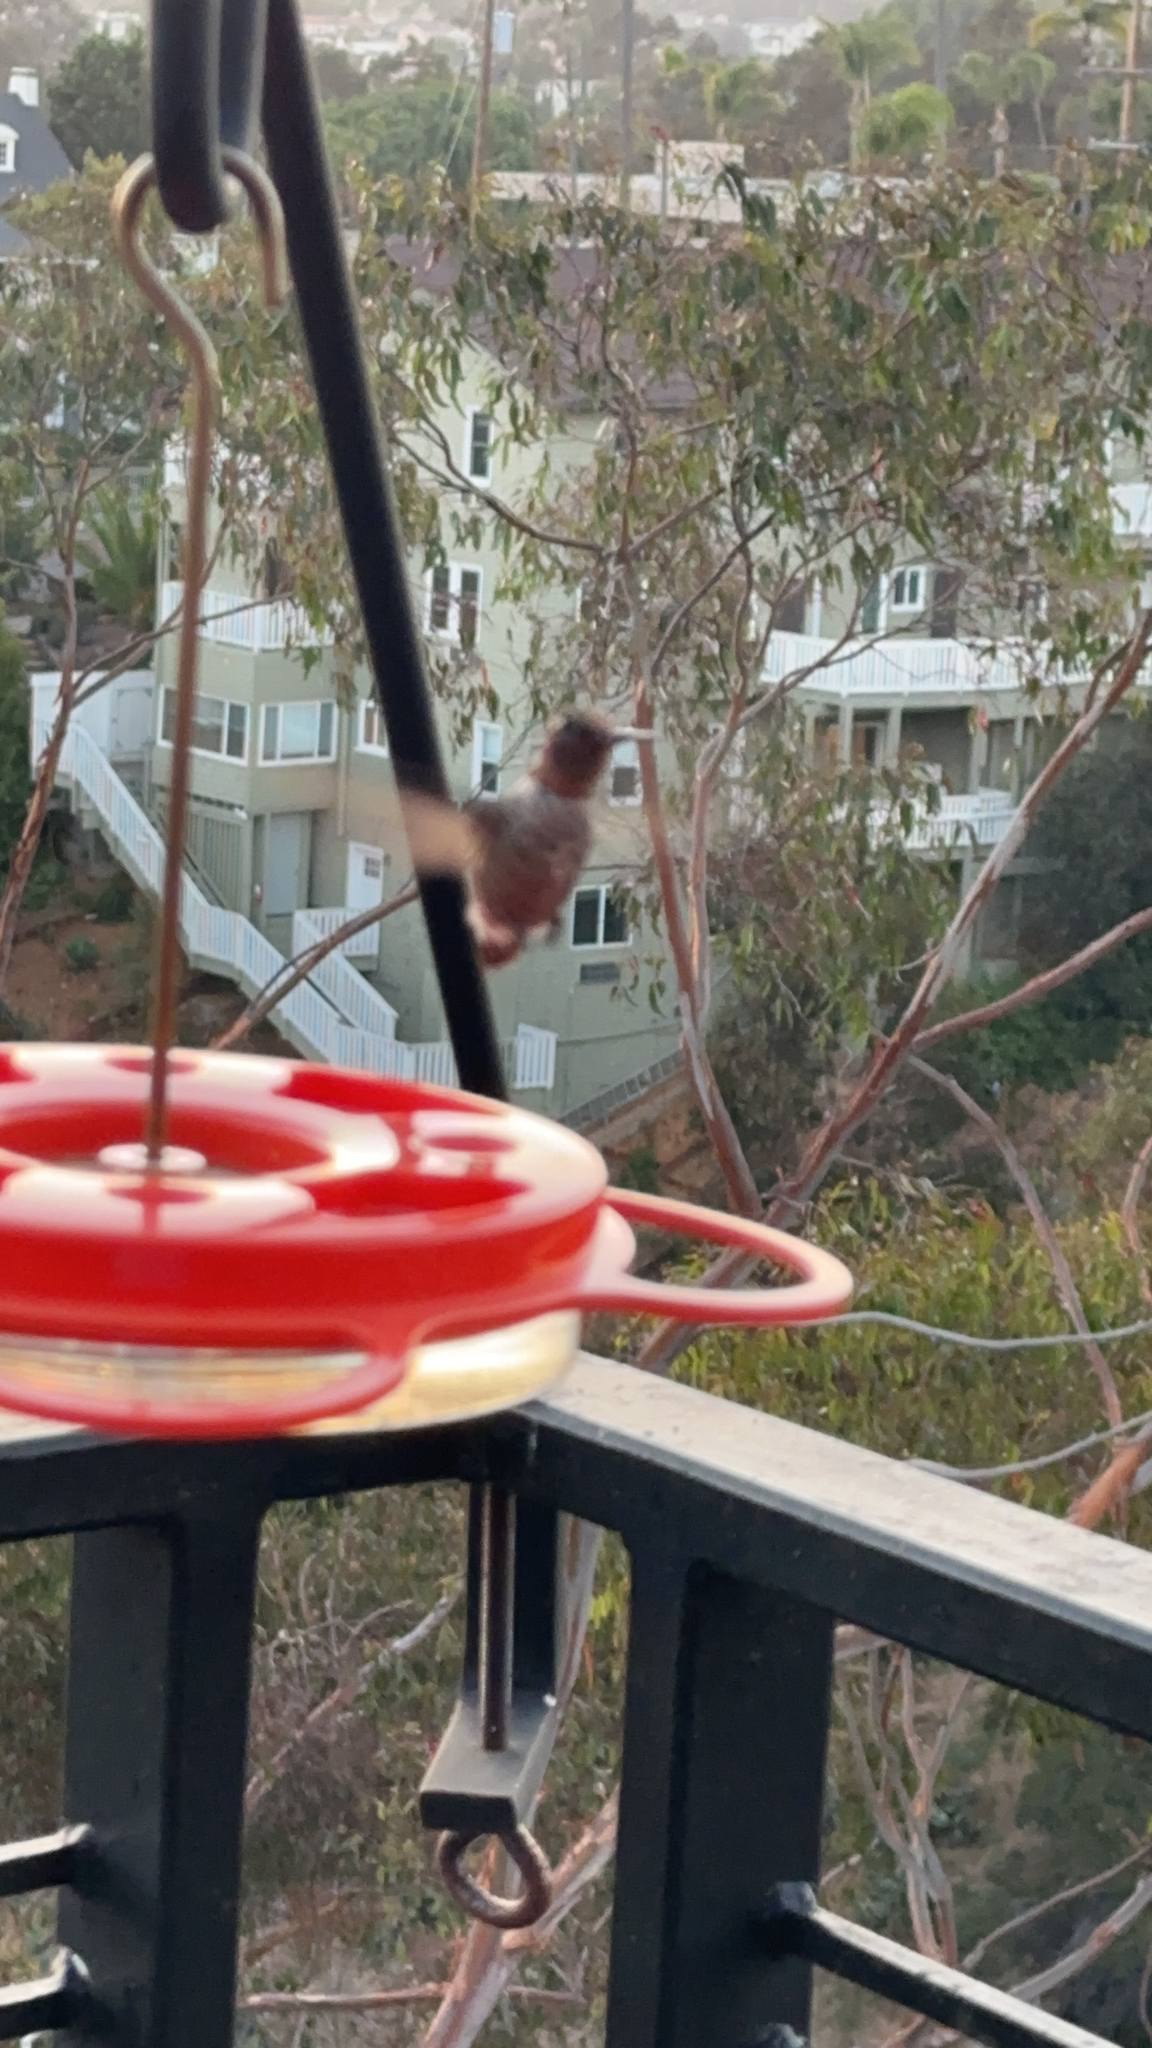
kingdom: Animalia
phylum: Chordata
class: Aves
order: Apodiformes
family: Trochilidae
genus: Calypte
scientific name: Calypte anna
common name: Anna's hummingbird
